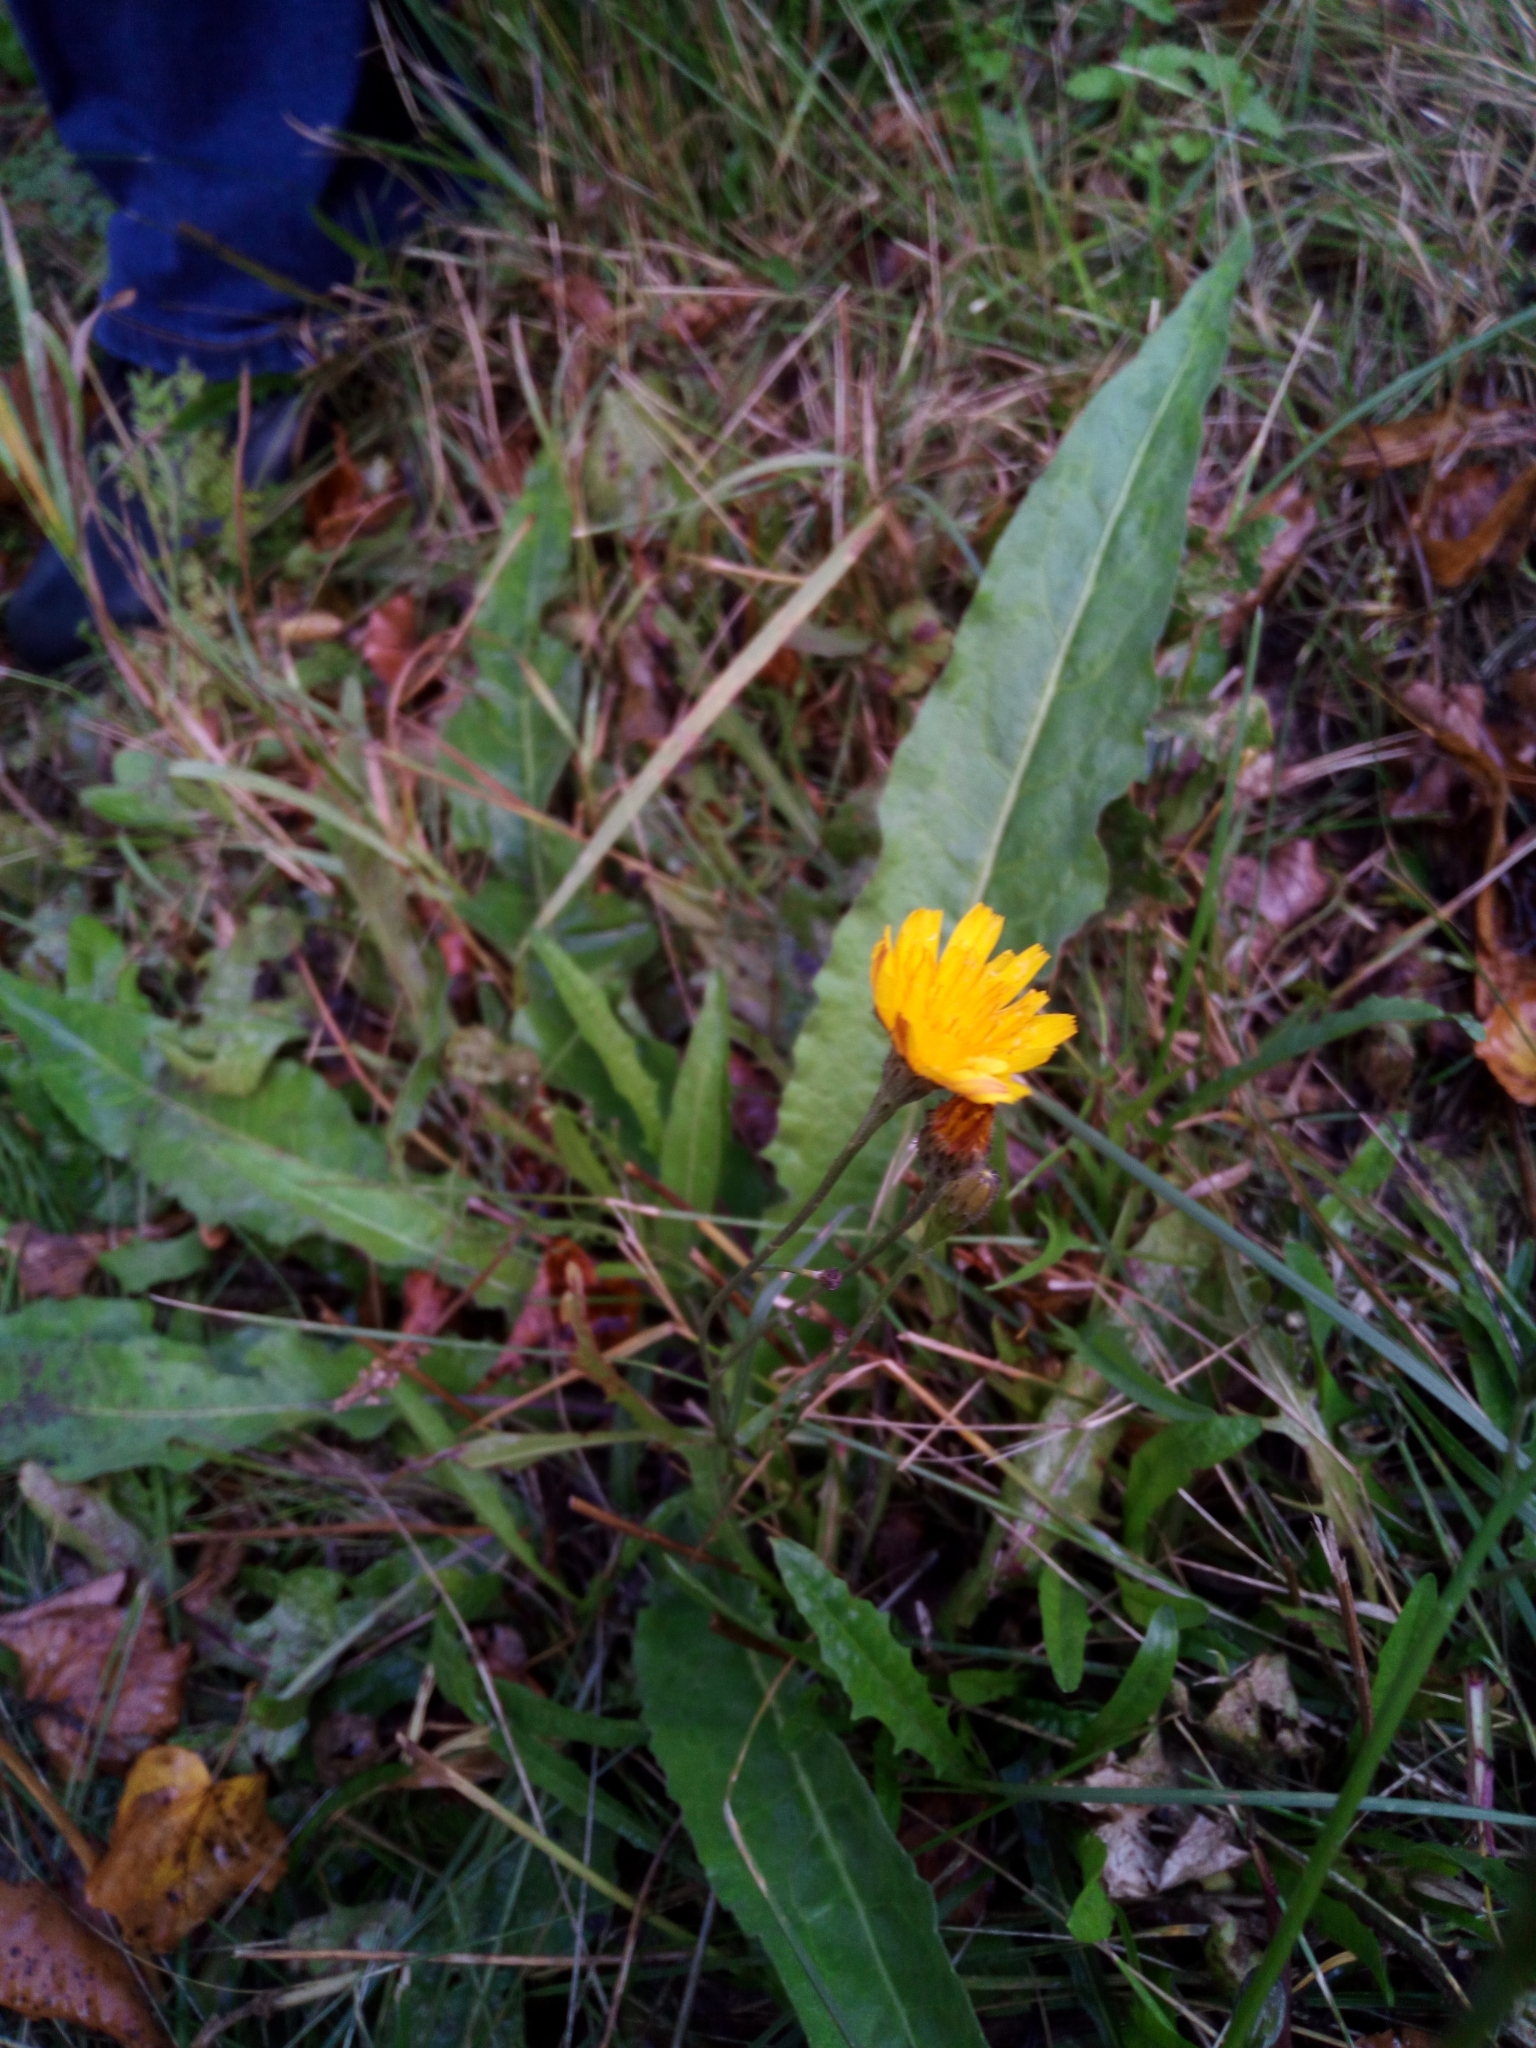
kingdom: Plantae
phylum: Tracheophyta
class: Magnoliopsida
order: Asterales
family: Asteraceae
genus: Scorzoneroides
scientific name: Scorzoneroides autumnalis
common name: Autumn hawkbit
